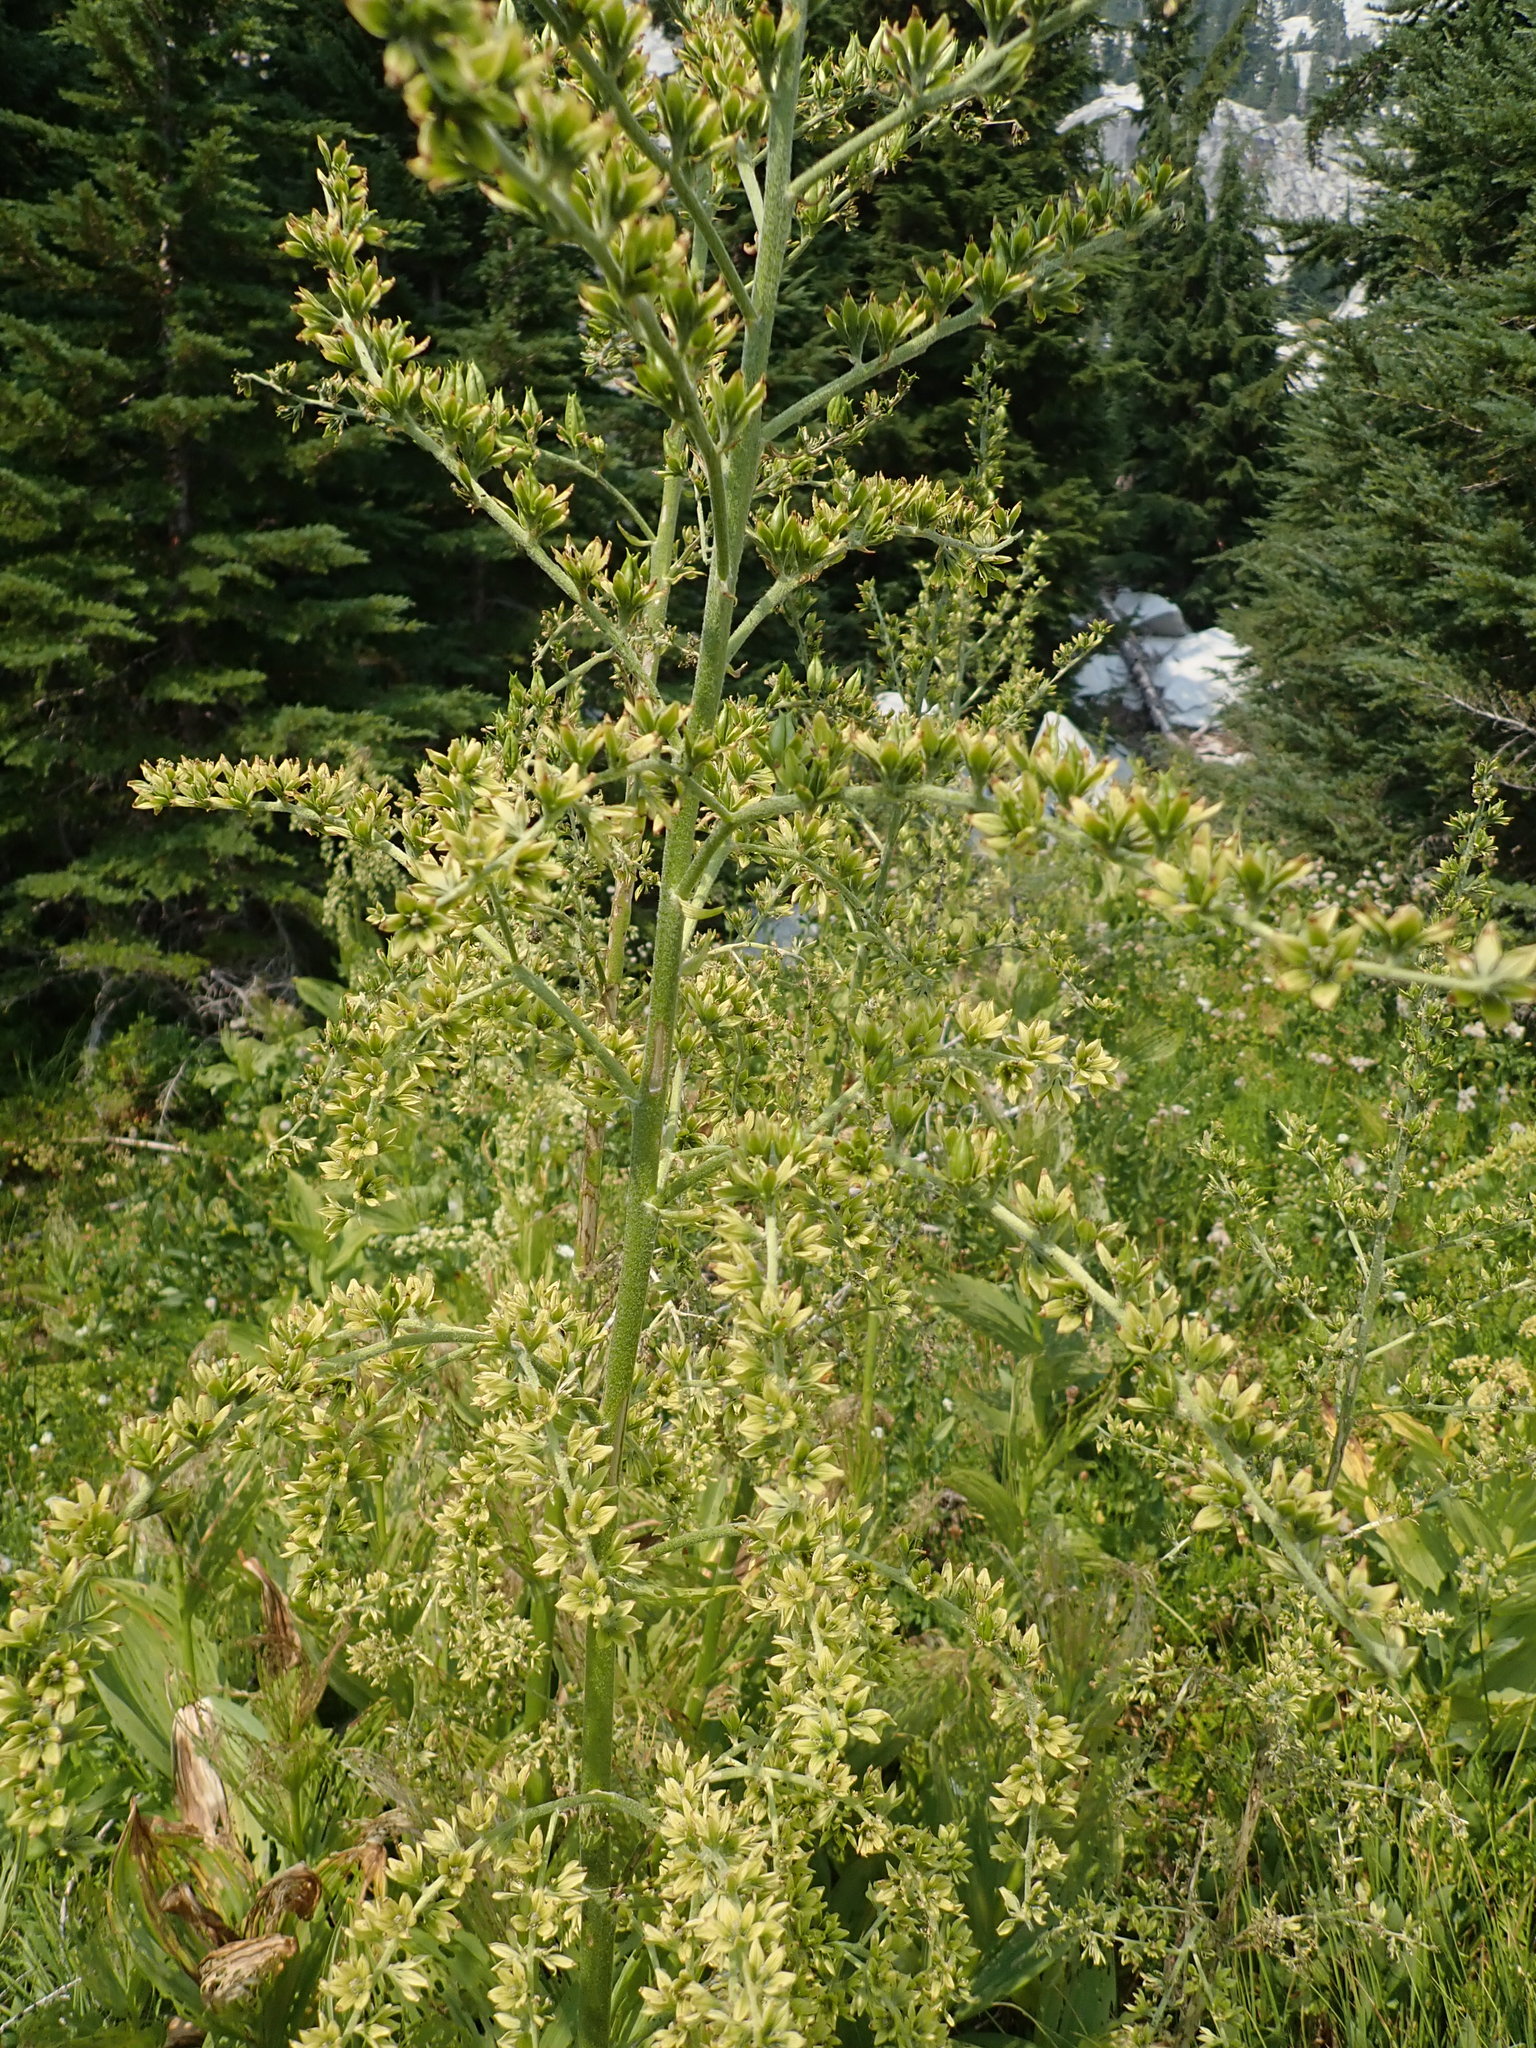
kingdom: Plantae
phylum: Tracheophyta
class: Liliopsida
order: Liliales
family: Melanthiaceae
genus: Veratrum
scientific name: Veratrum viride
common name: American false hellebore
